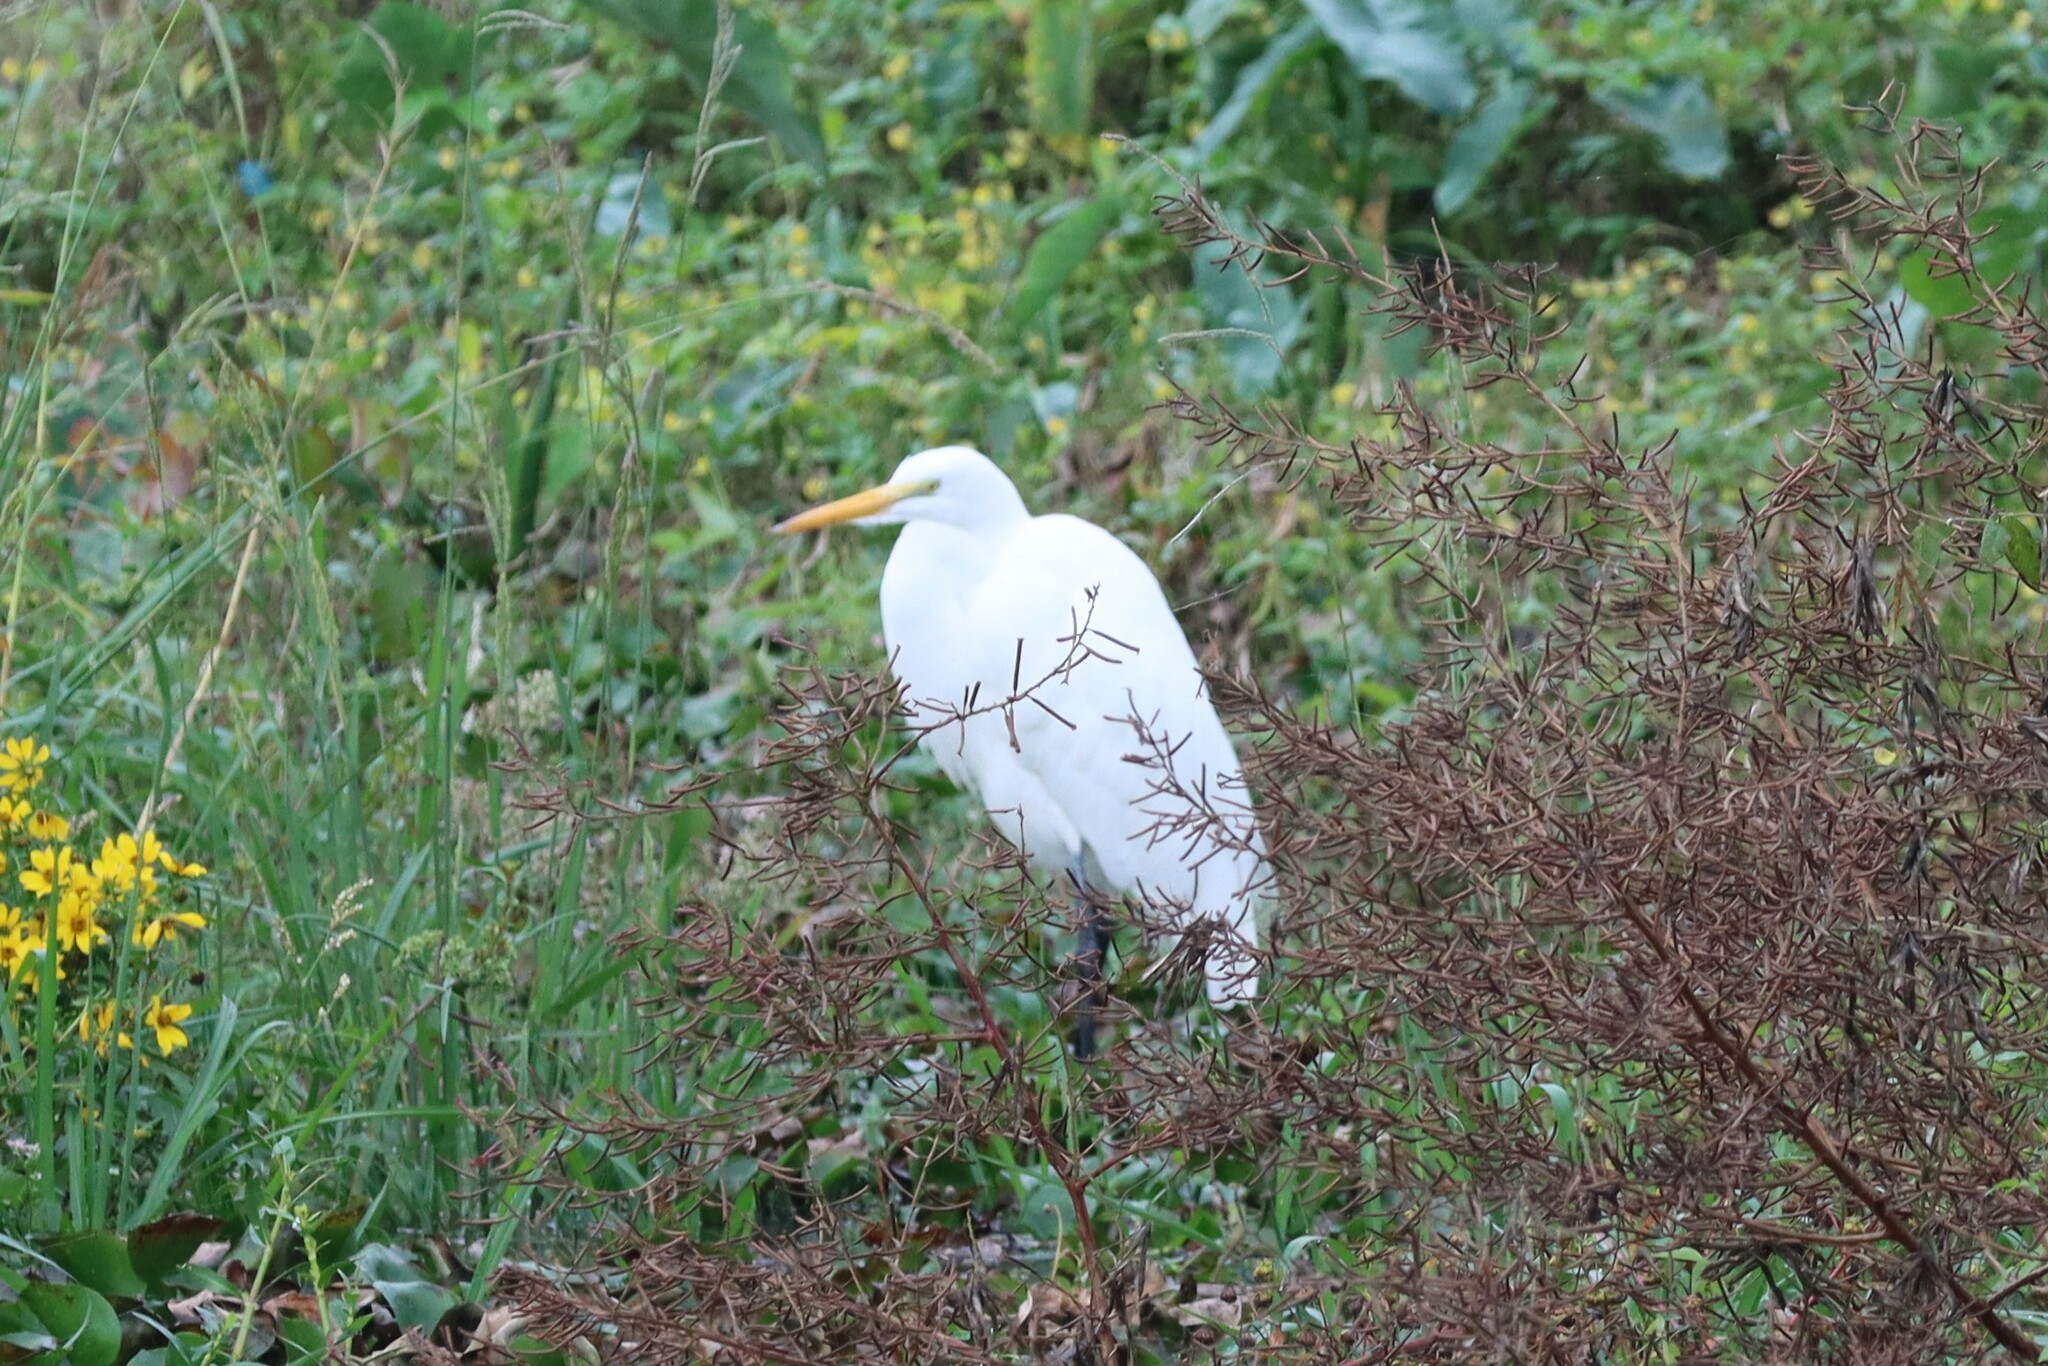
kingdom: Animalia
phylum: Chordata
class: Aves
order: Pelecaniformes
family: Ardeidae
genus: Ardea
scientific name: Ardea alba
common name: Great egret
